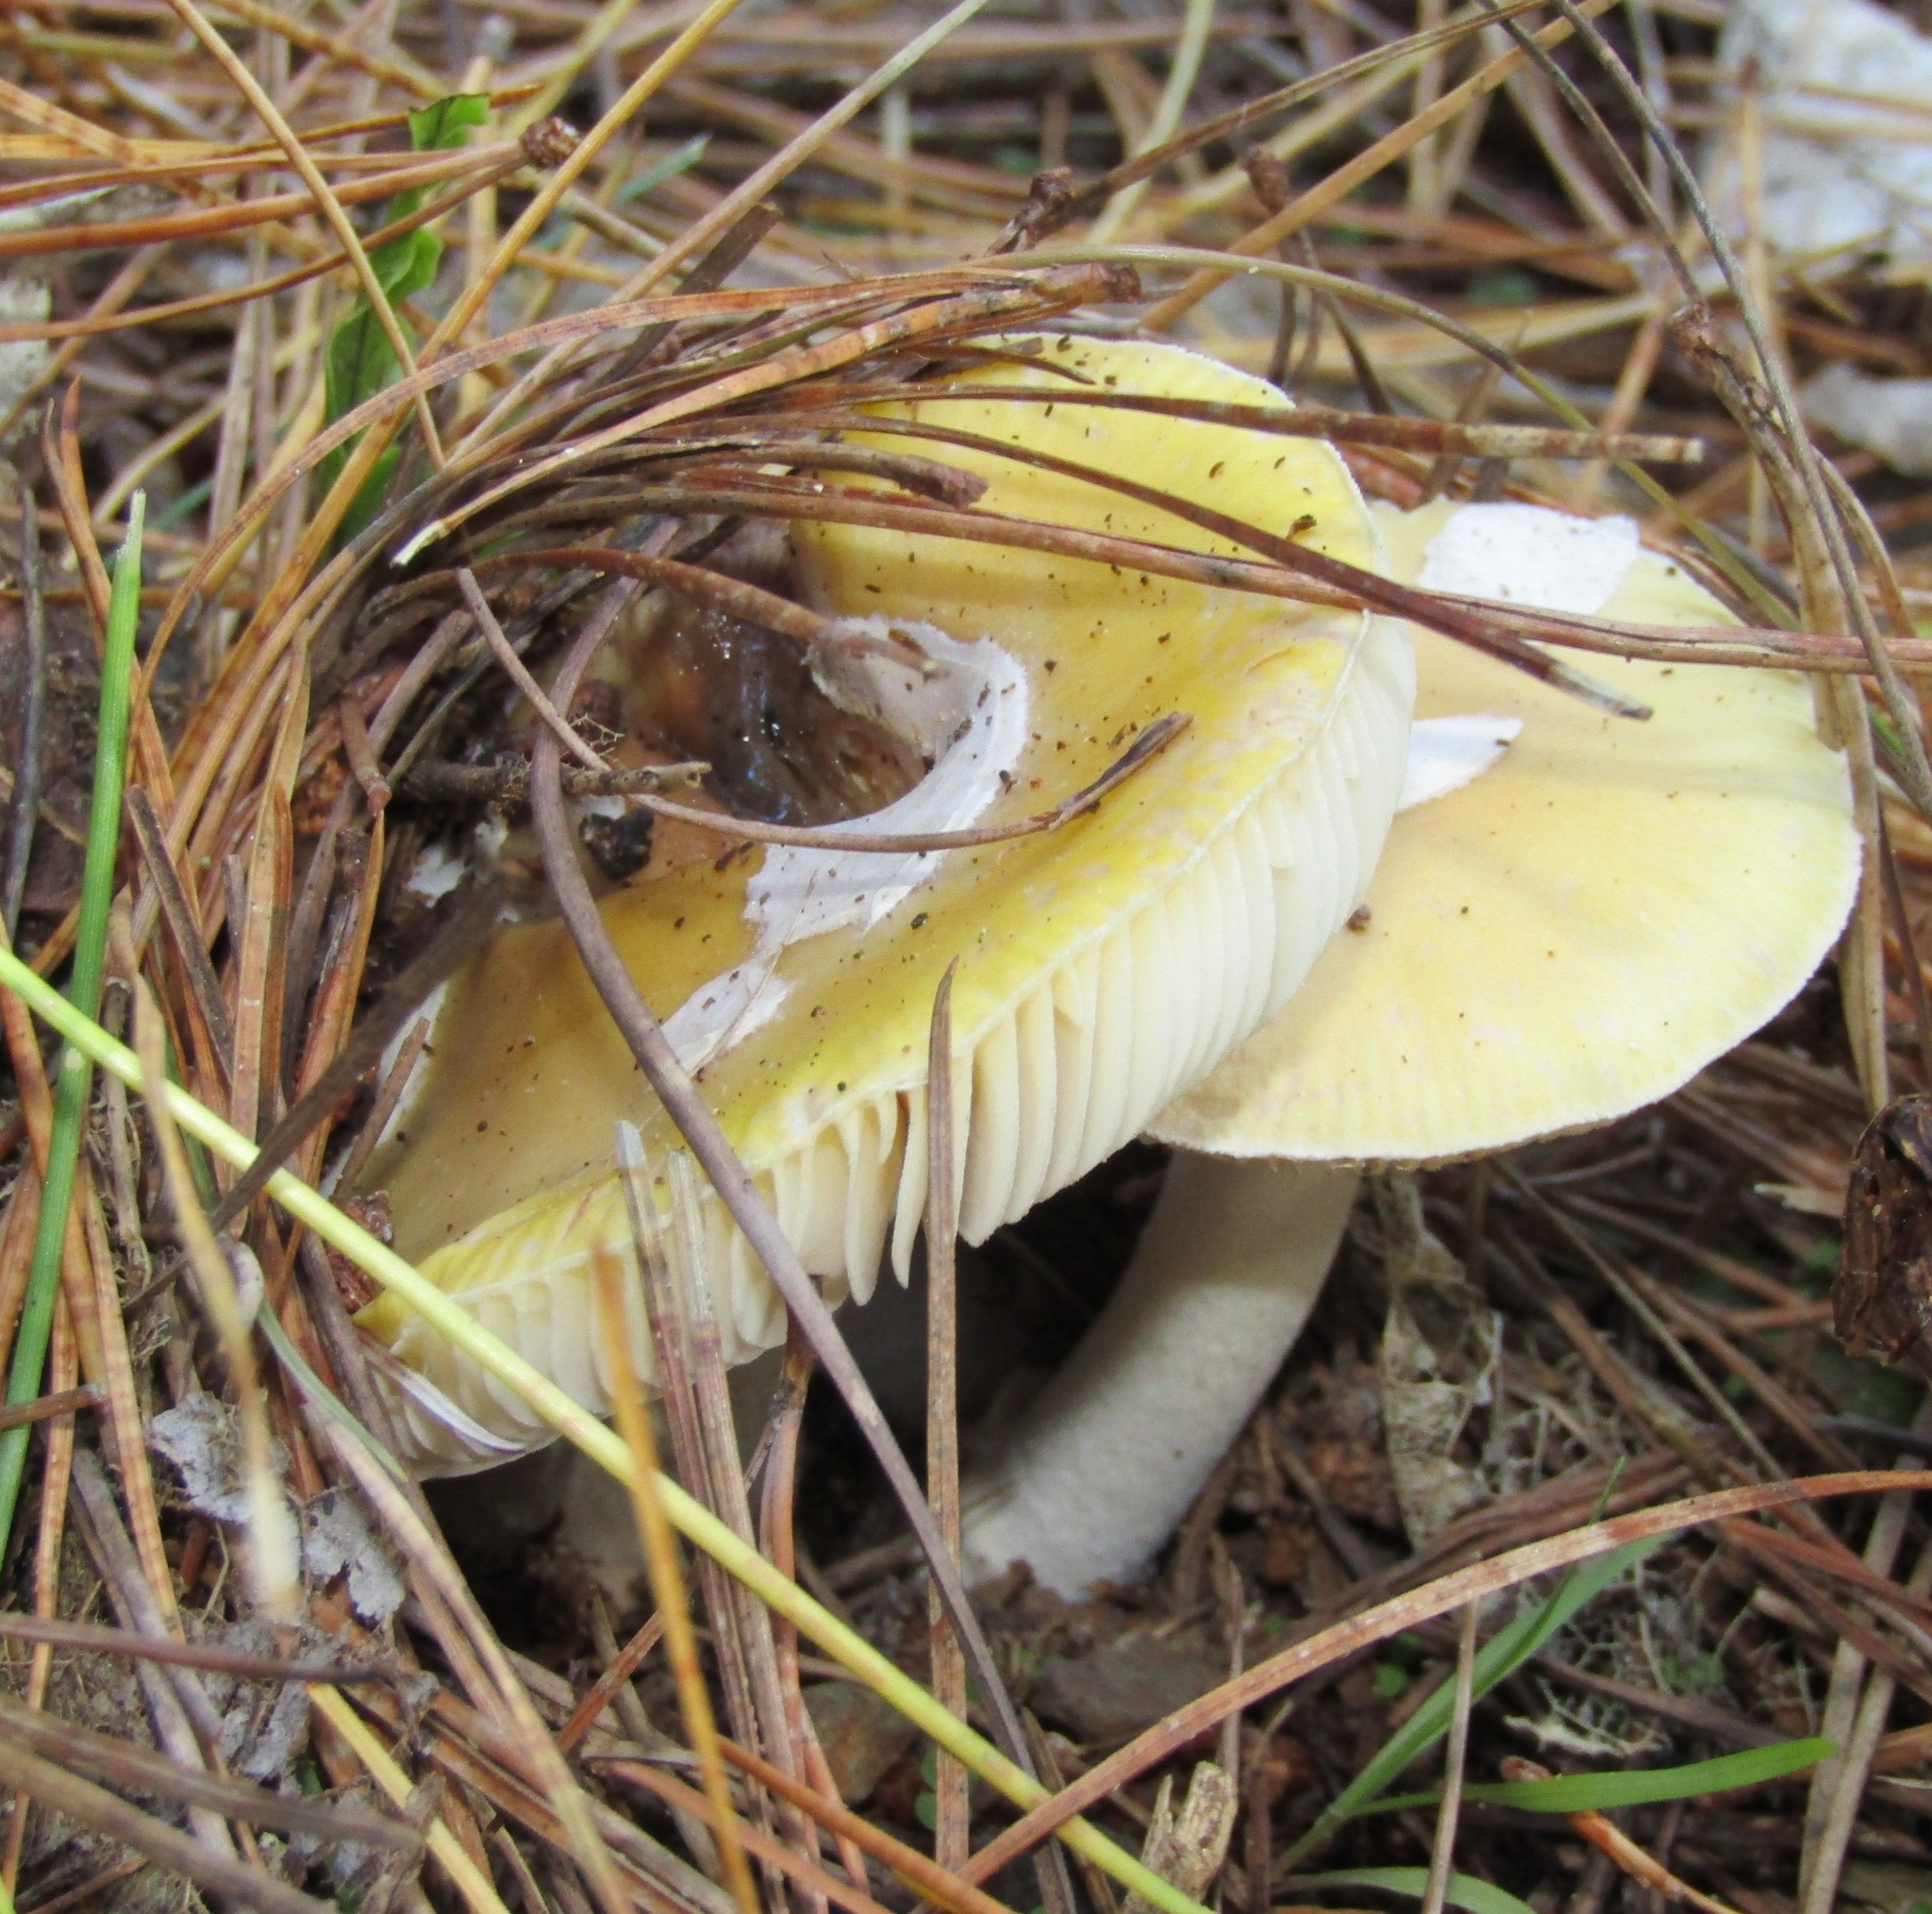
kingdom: Fungi
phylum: Basidiomycota
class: Agaricomycetes
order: Agaricales
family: Amanitaceae
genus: Amanita
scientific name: Amanita gemmata
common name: Jewelled amanita
